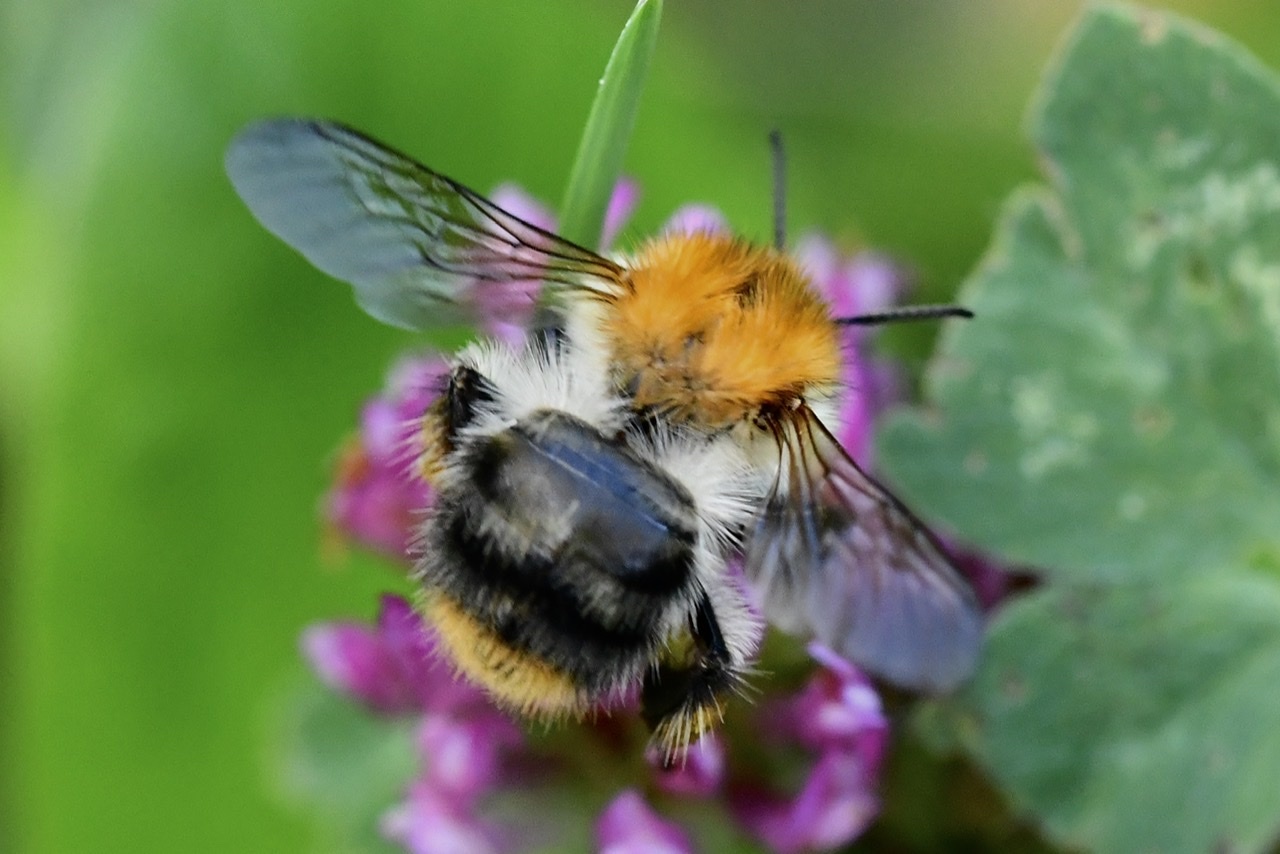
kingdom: Animalia
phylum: Arthropoda
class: Insecta
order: Hymenoptera
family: Apidae
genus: Bombus
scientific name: Bombus pascuorum
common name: Common carder bee
